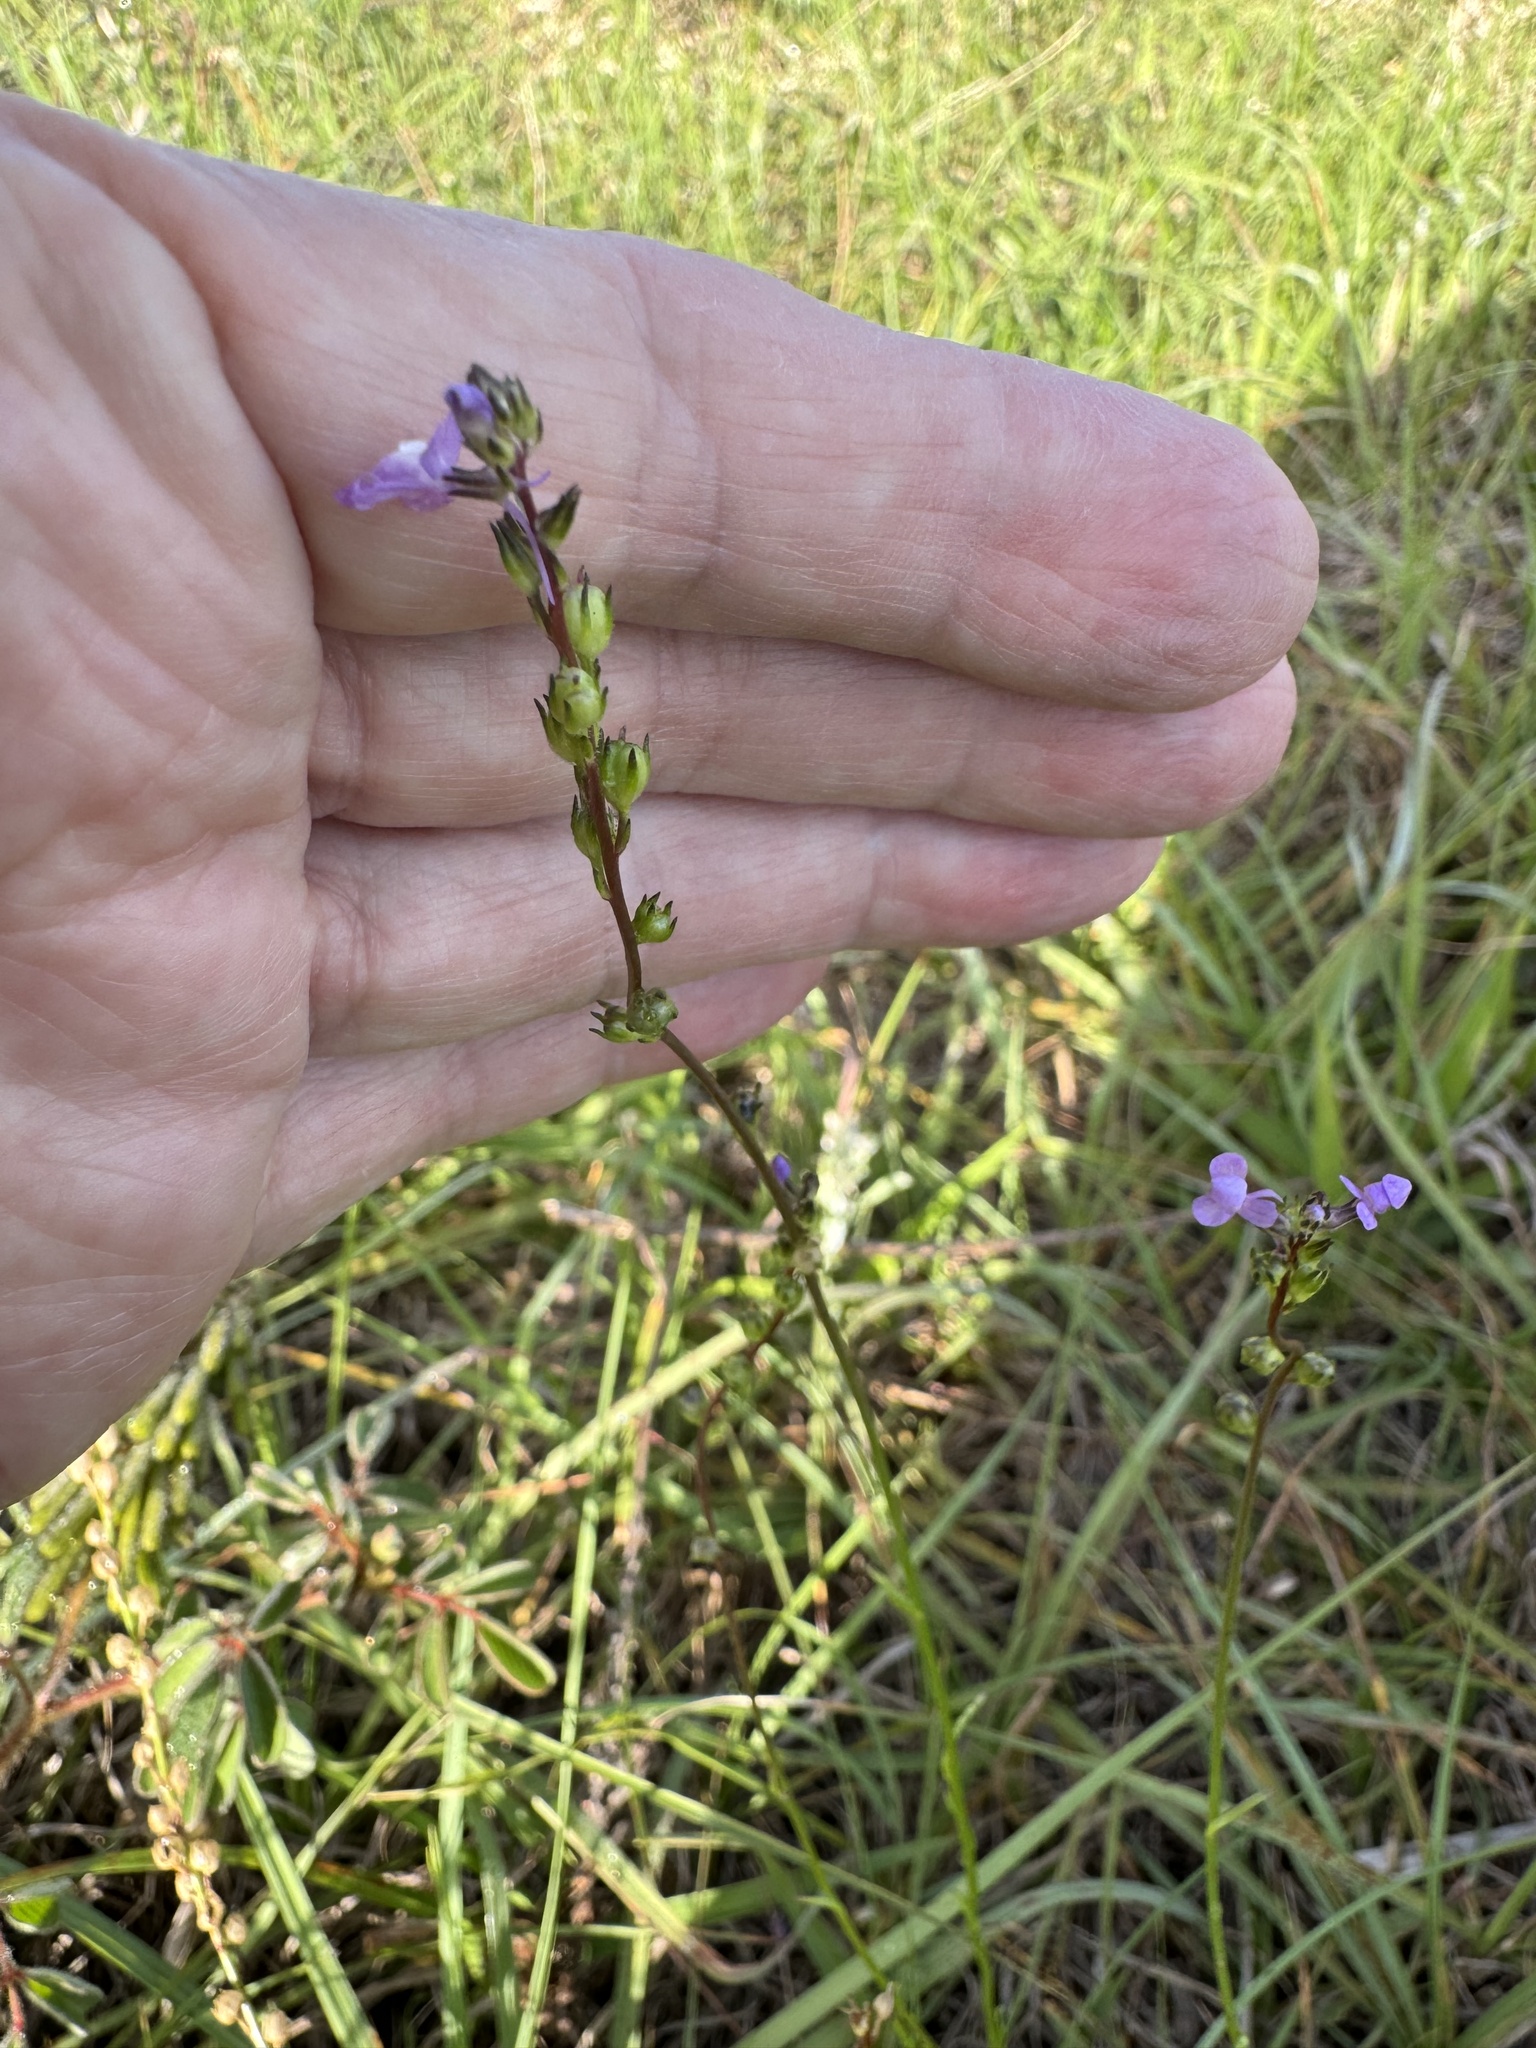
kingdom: Plantae
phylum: Tracheophyta
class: Magnoliopsida
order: Lamiales
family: Plantaginaceae
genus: Nuttallanthus
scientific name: Nuttallanthus canadensis
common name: Blue toadflax
